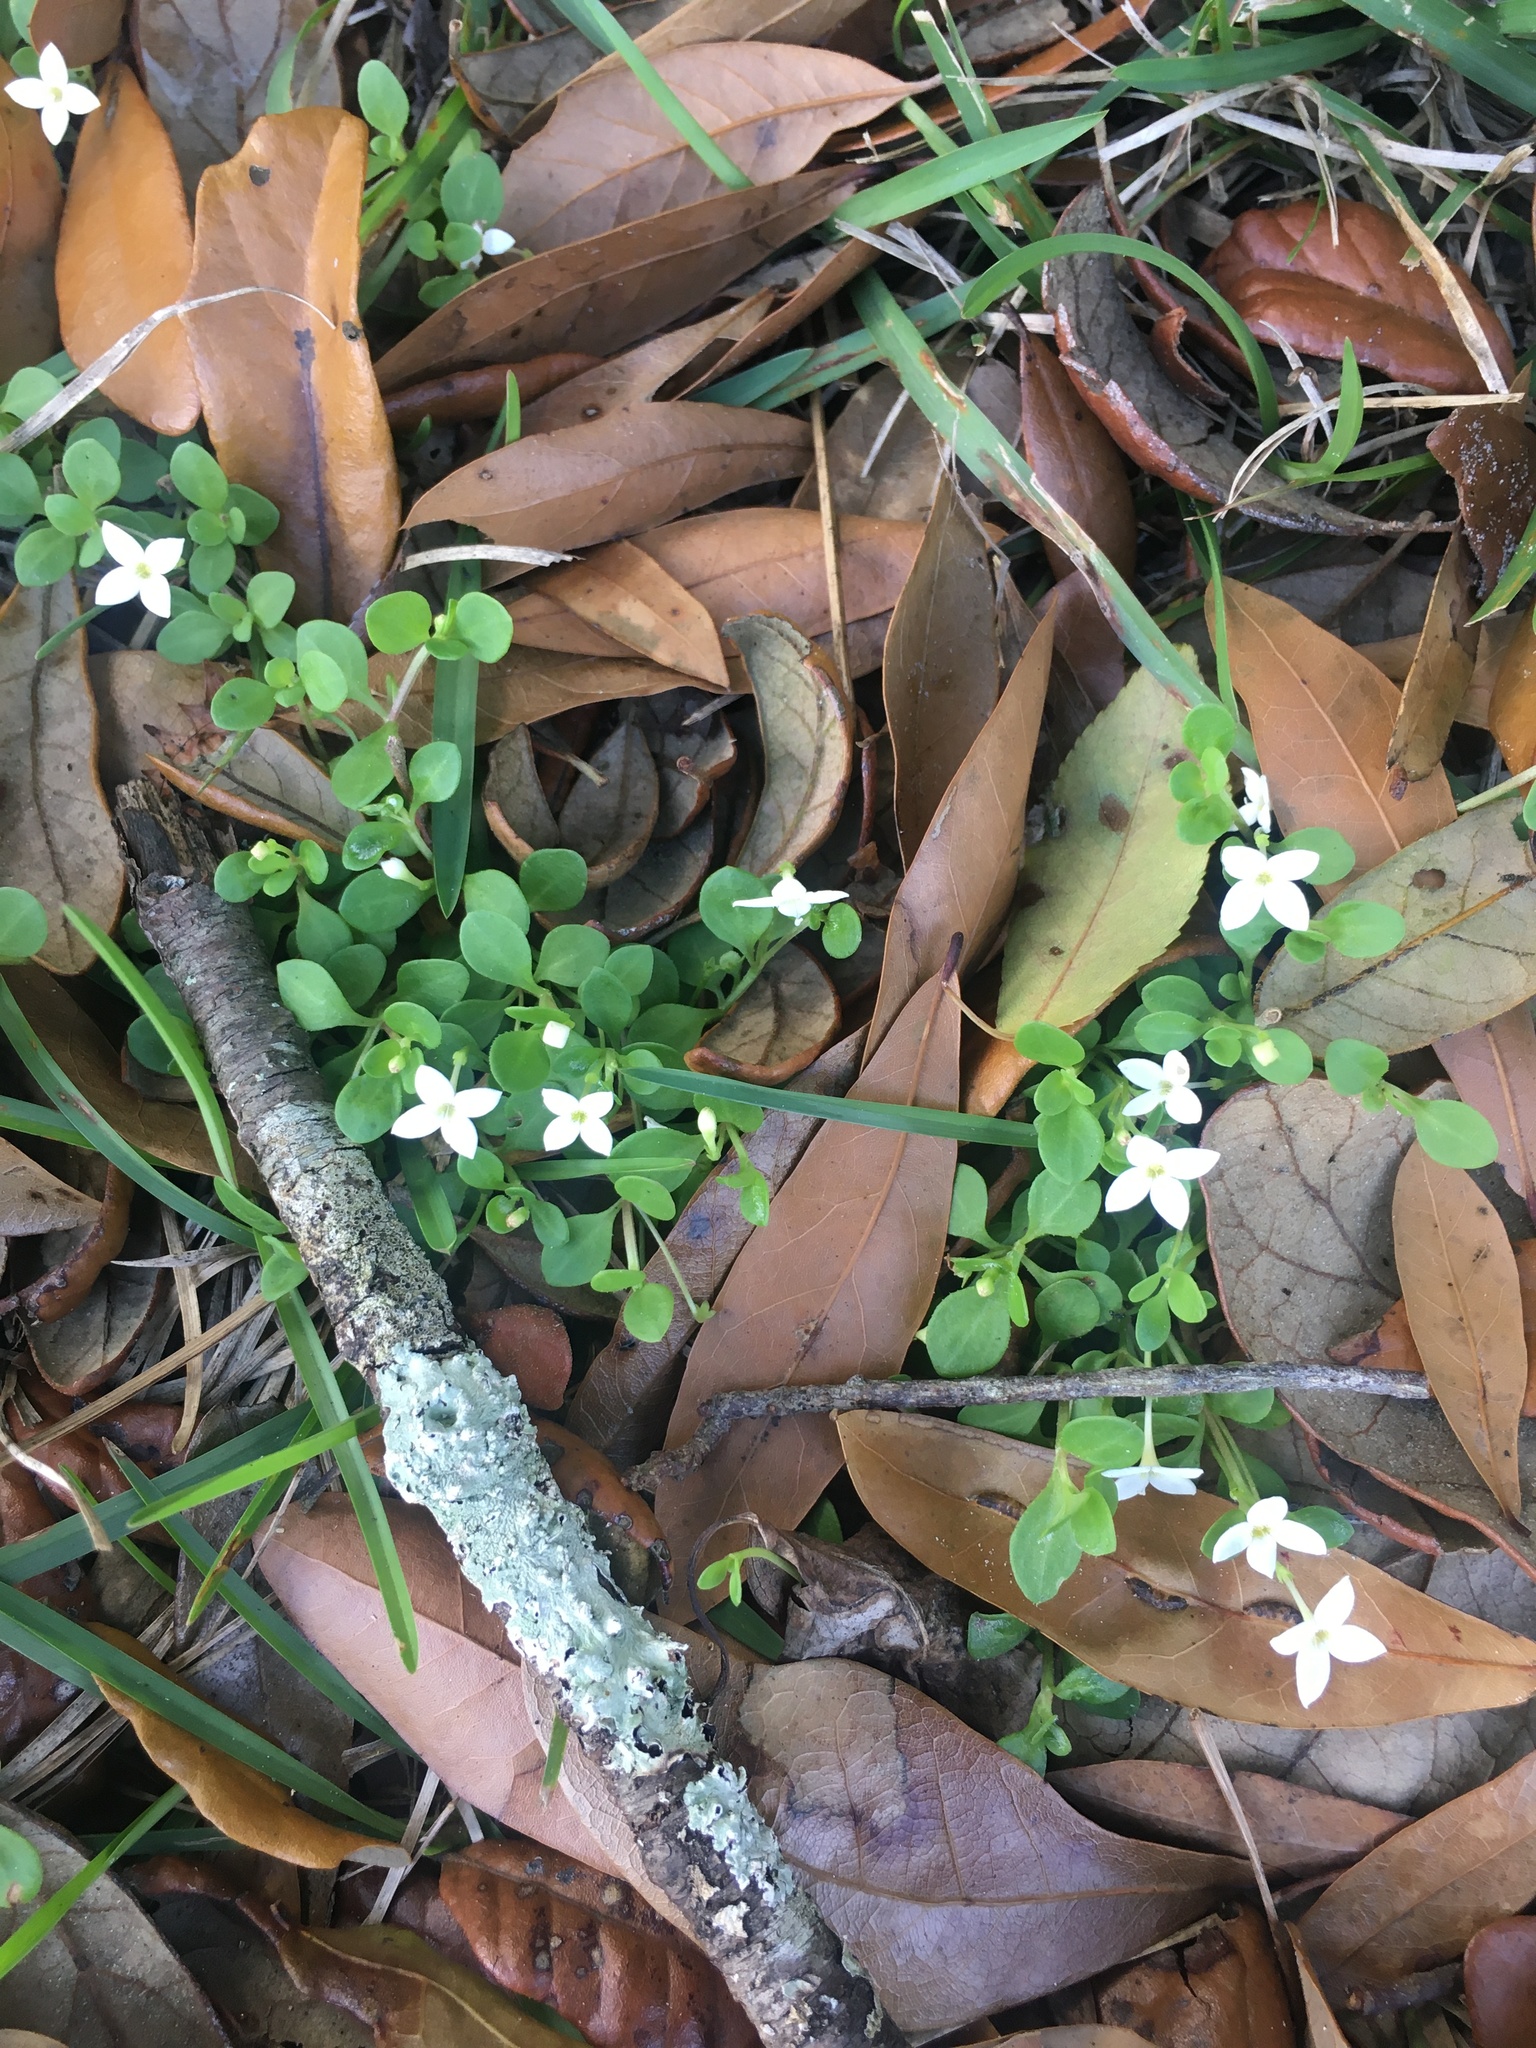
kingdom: Plantae
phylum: Tracheophyta
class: Magnoliopsida
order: Gentianales
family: Rubiaceae
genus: Houstonia
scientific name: Houstonia procumbens
